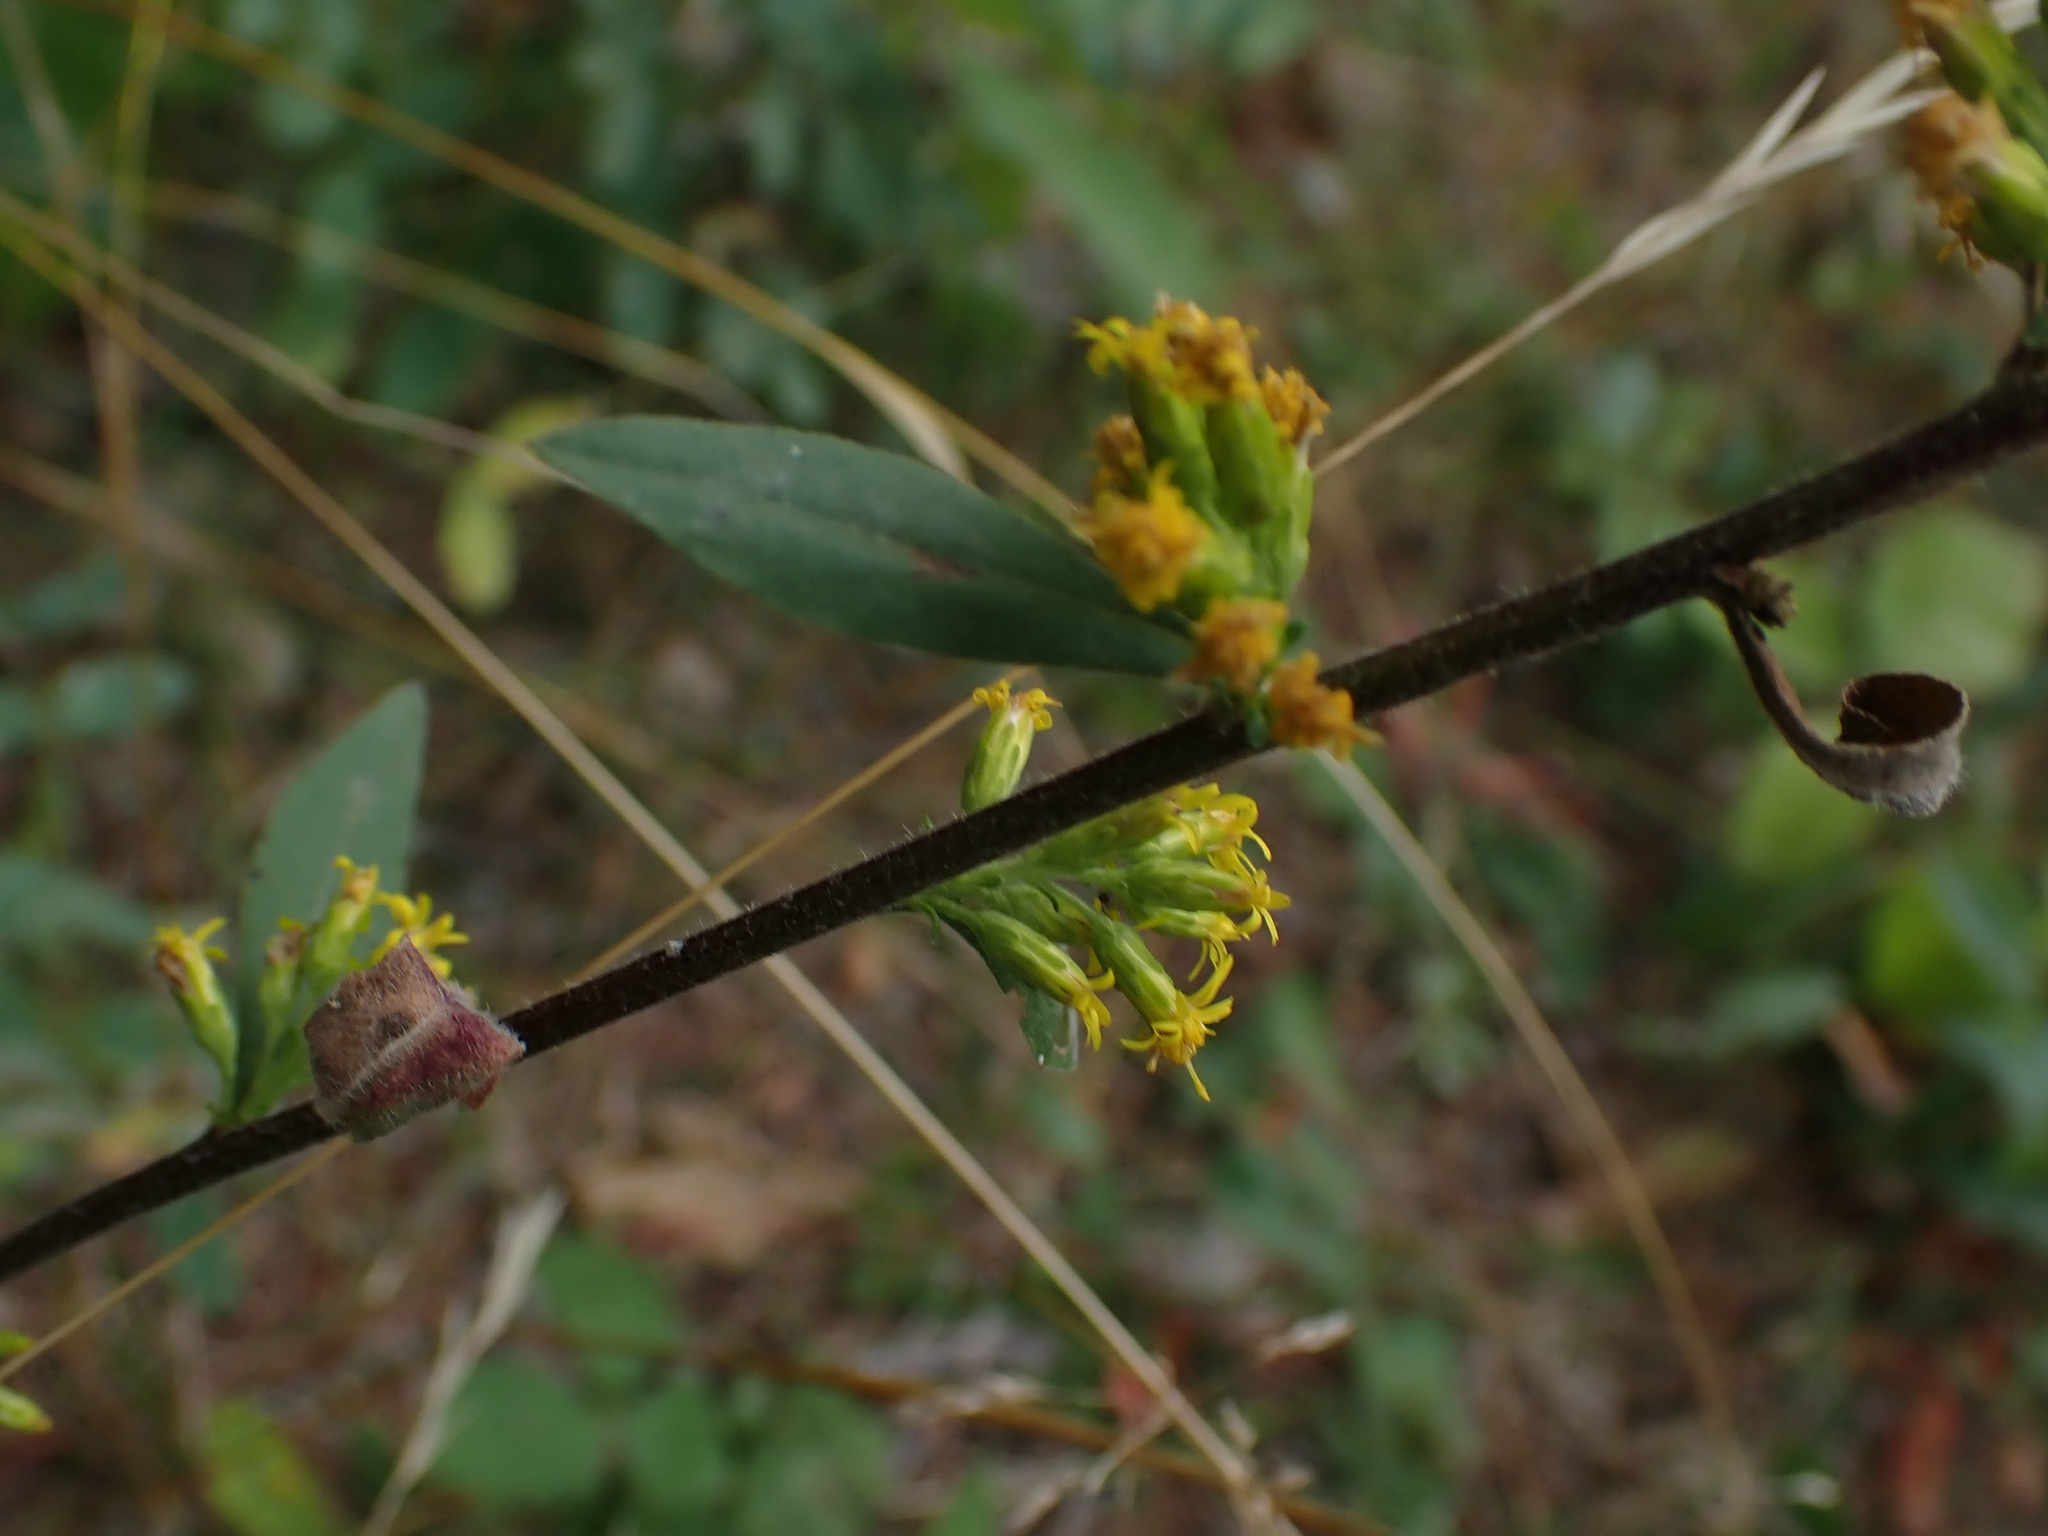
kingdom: Plantae
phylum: Tracheophyta
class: Magnoliopsida
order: Asterales
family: Asteraceae
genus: Solidago
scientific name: Solidago hispida
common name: Hairy goldenrod
